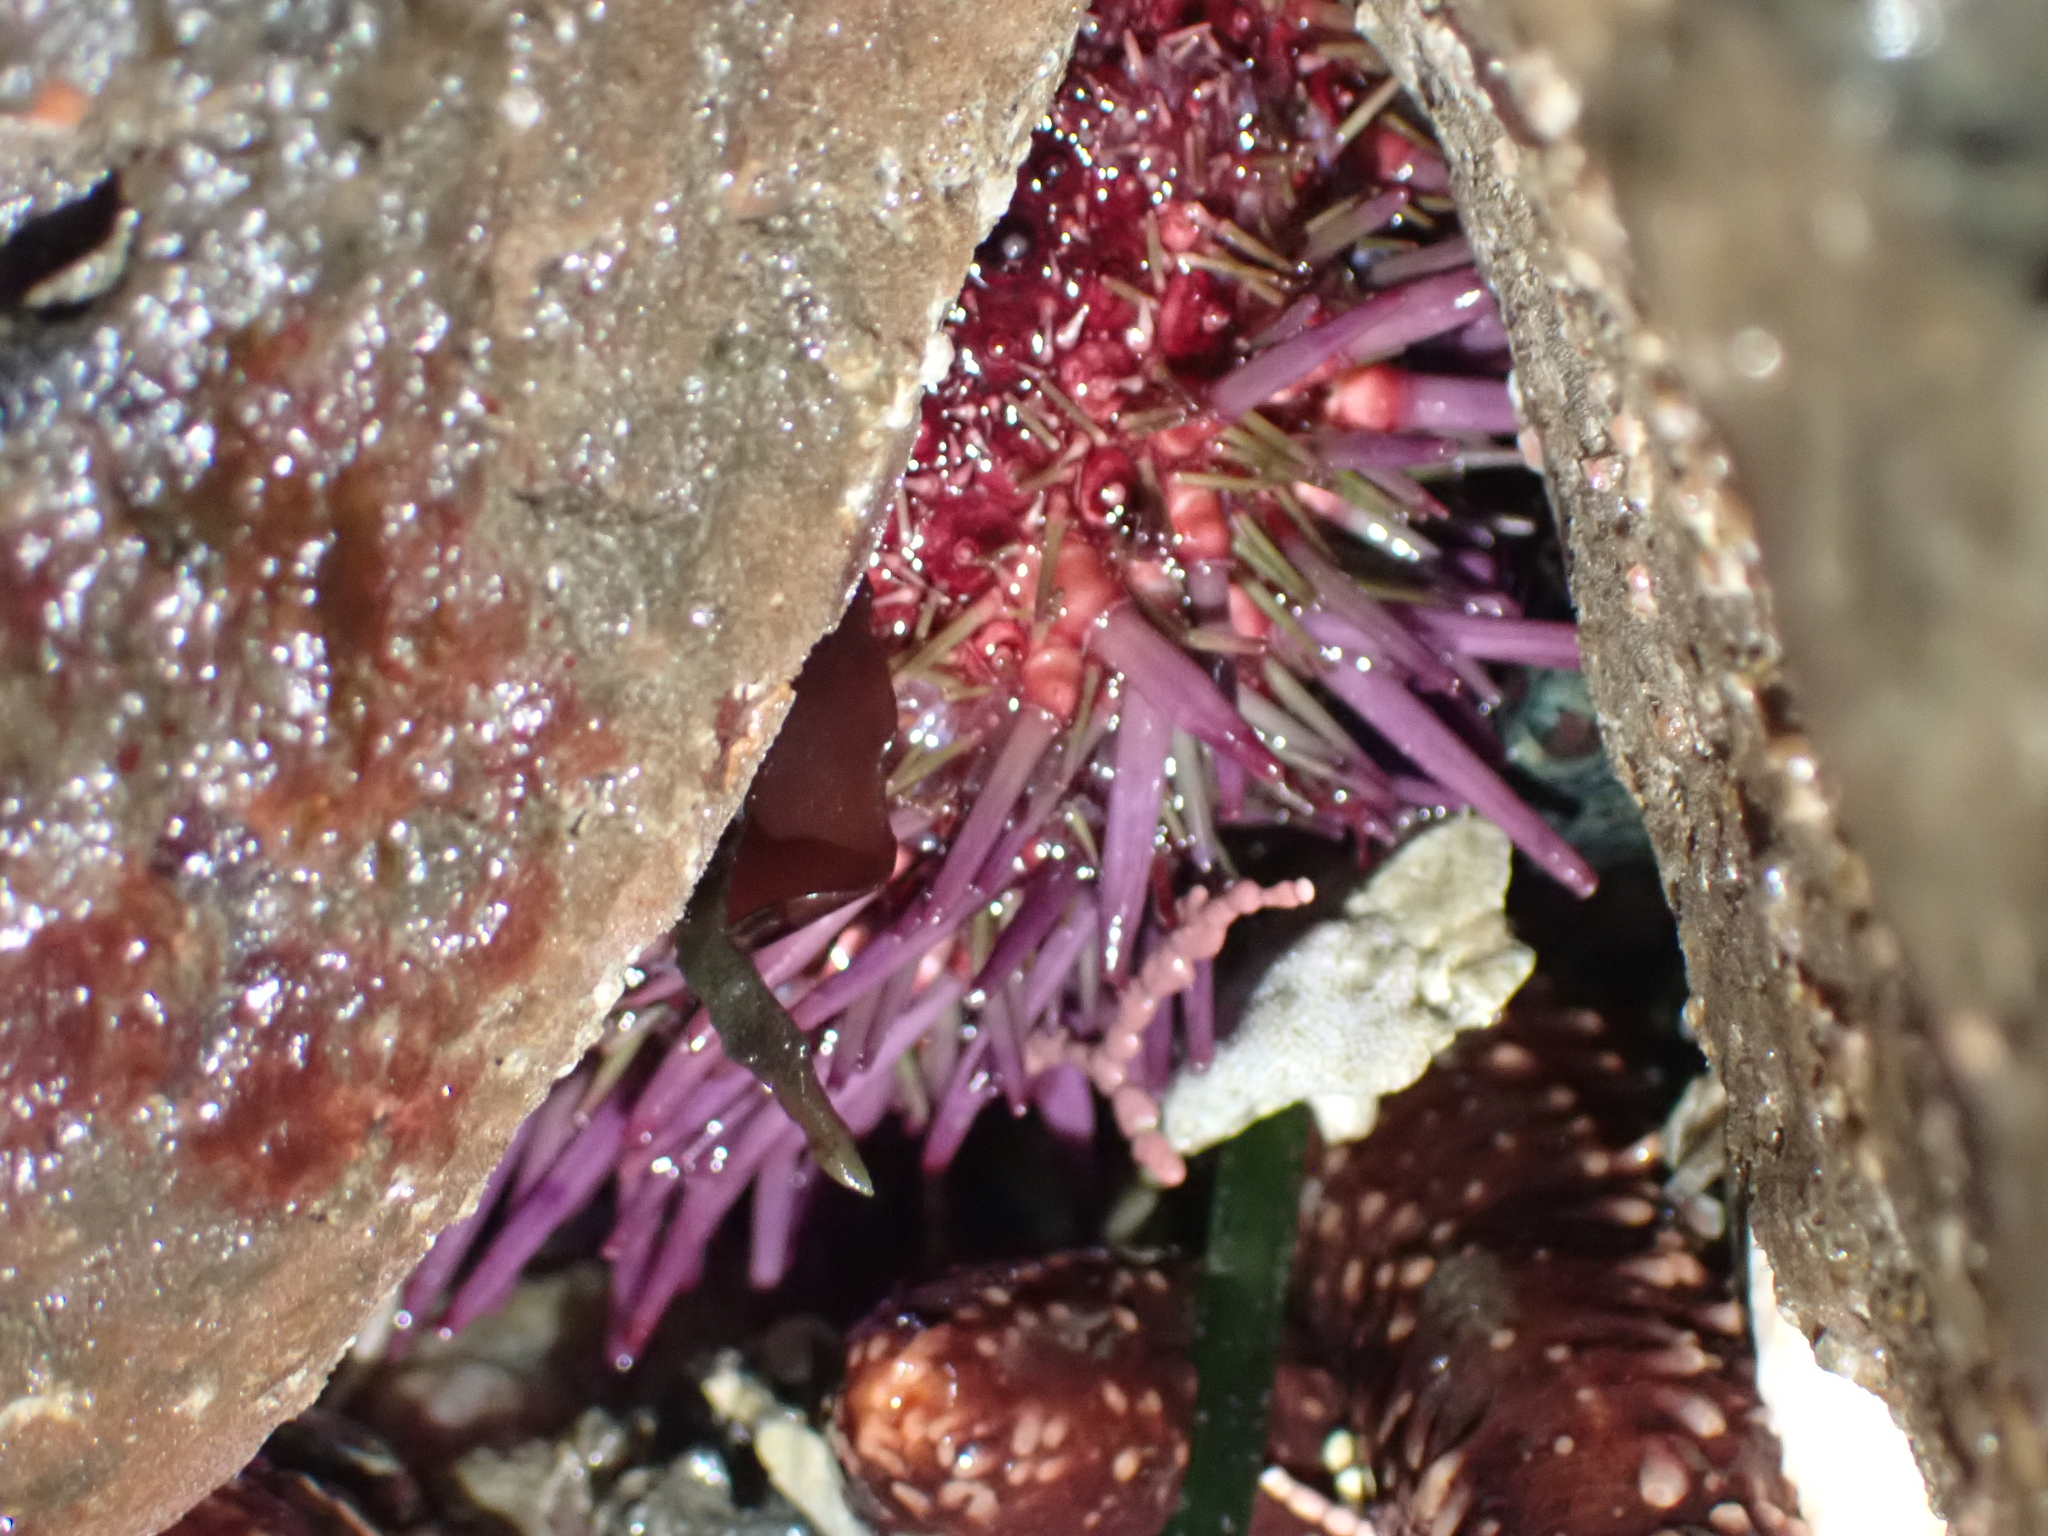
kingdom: Animalia
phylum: Echinodermata
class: Echinoidea
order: Camarodonta
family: Strongylocentrotidae
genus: Strongylocentrotus
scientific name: Strongylocentrotus purpuratus
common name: Purple sea urchin
